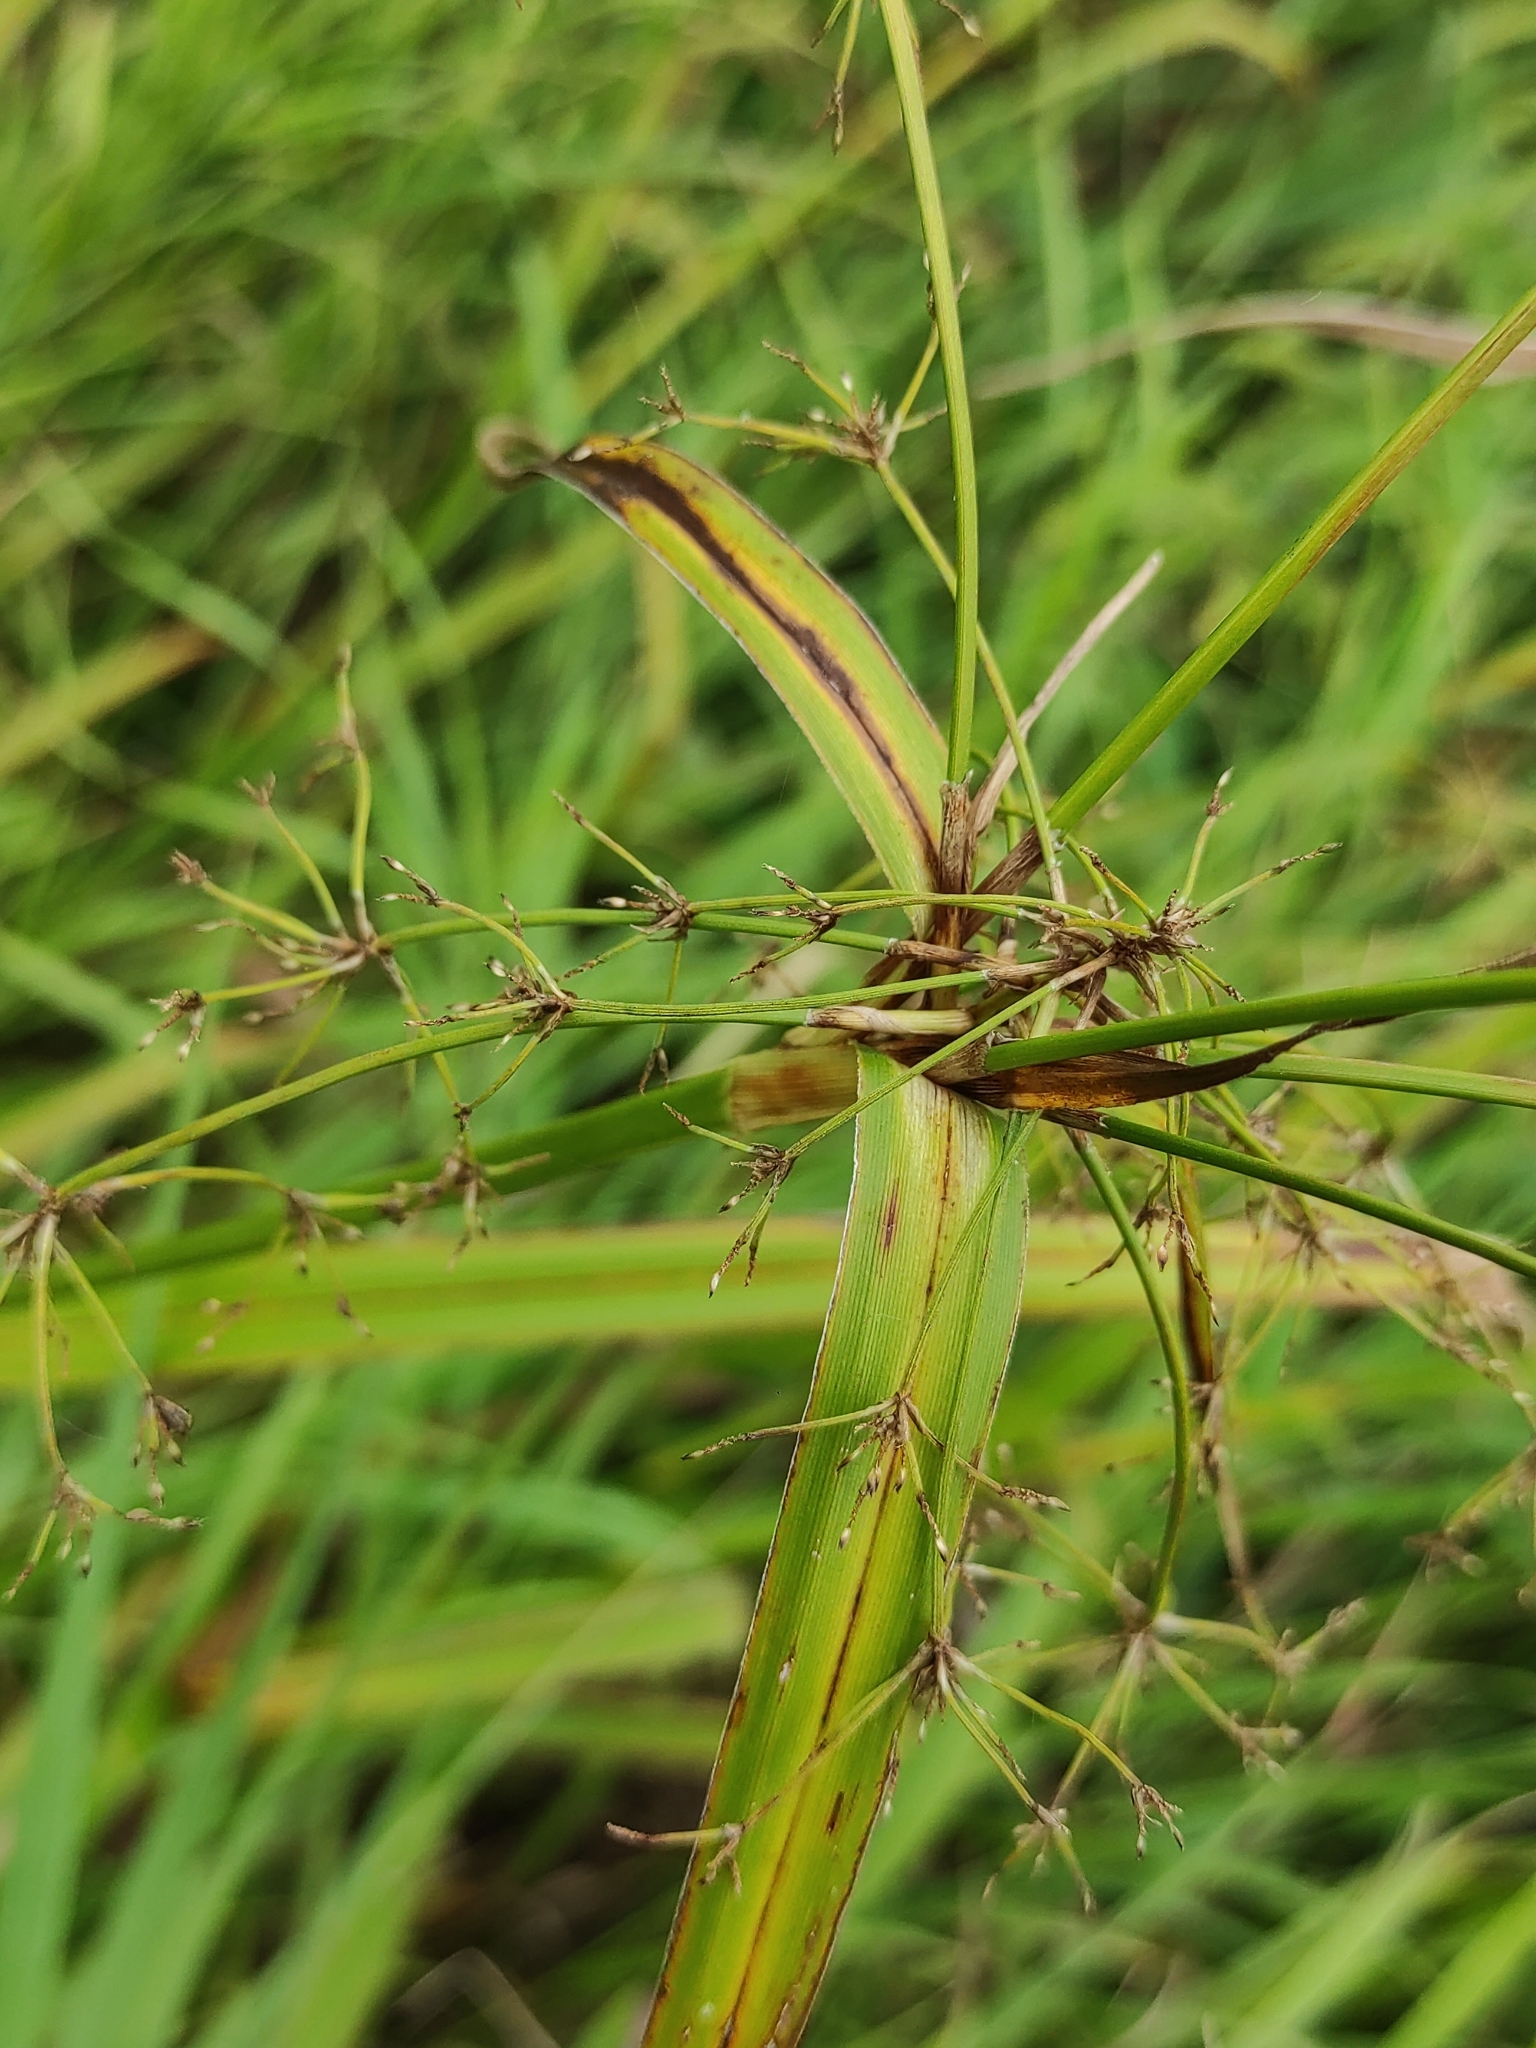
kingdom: Plantae
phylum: Tracheophyta
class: Liliopsida
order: Poales
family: Cyperaceae
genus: Scirpus
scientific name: Scirpus sylvaticus
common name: Wood club-rush
